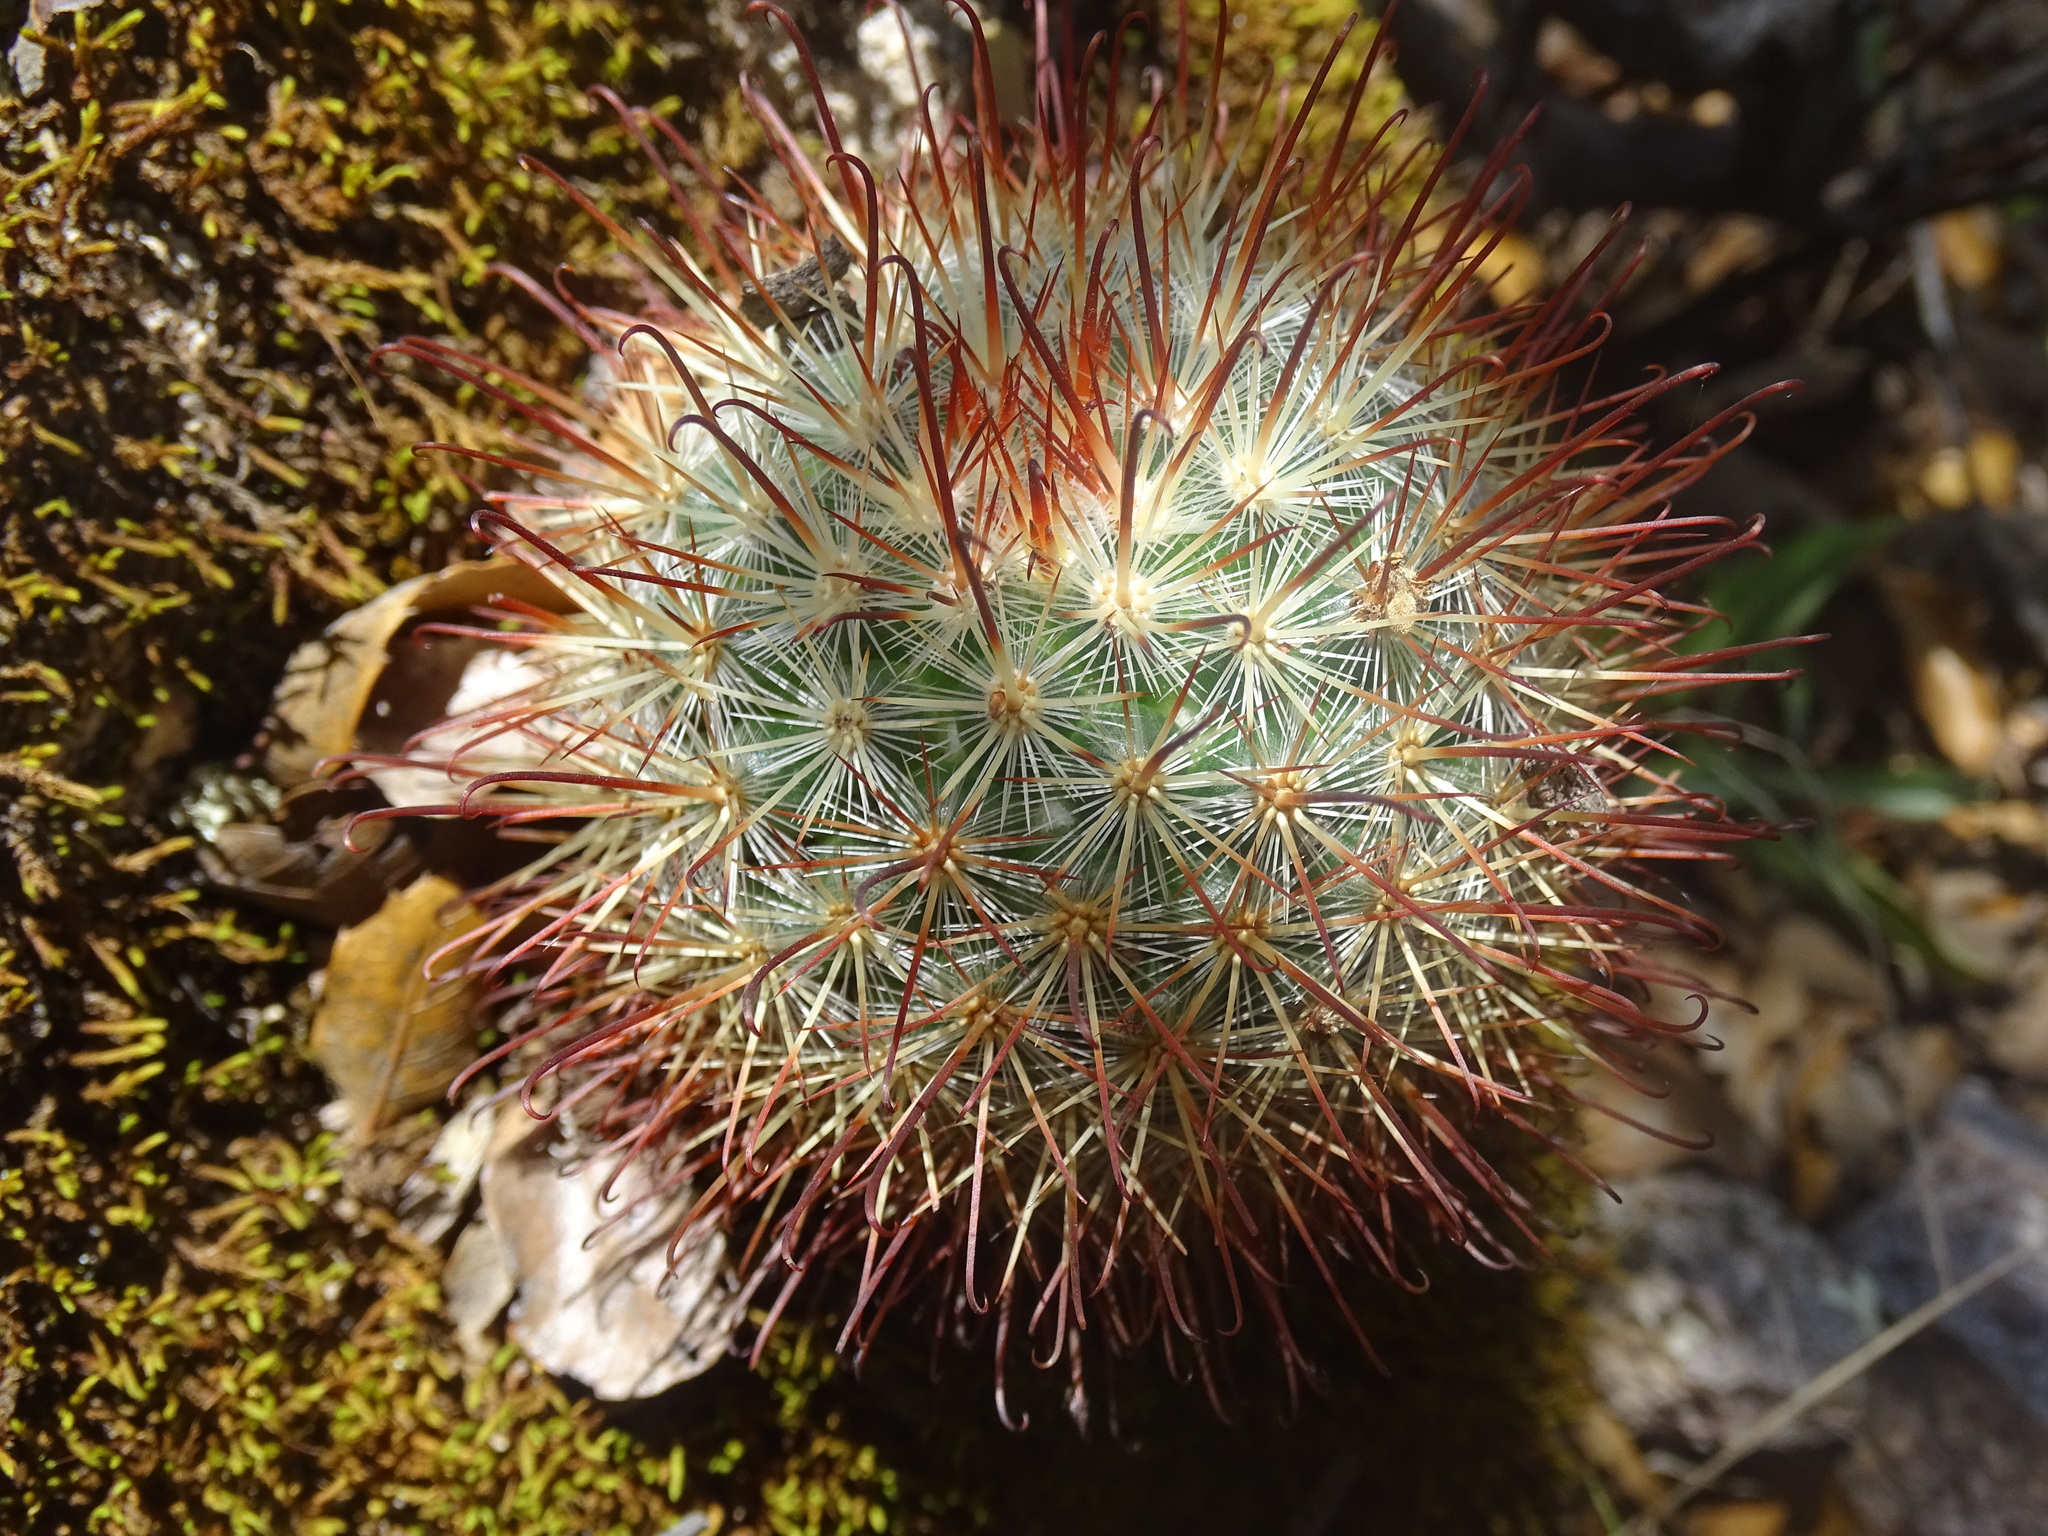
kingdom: Plantae
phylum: Tracheophyta
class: Magnoliopsida
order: Caryophyllales
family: Cactaceae
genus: Mammillaria
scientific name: Mammillaria moelleriana
